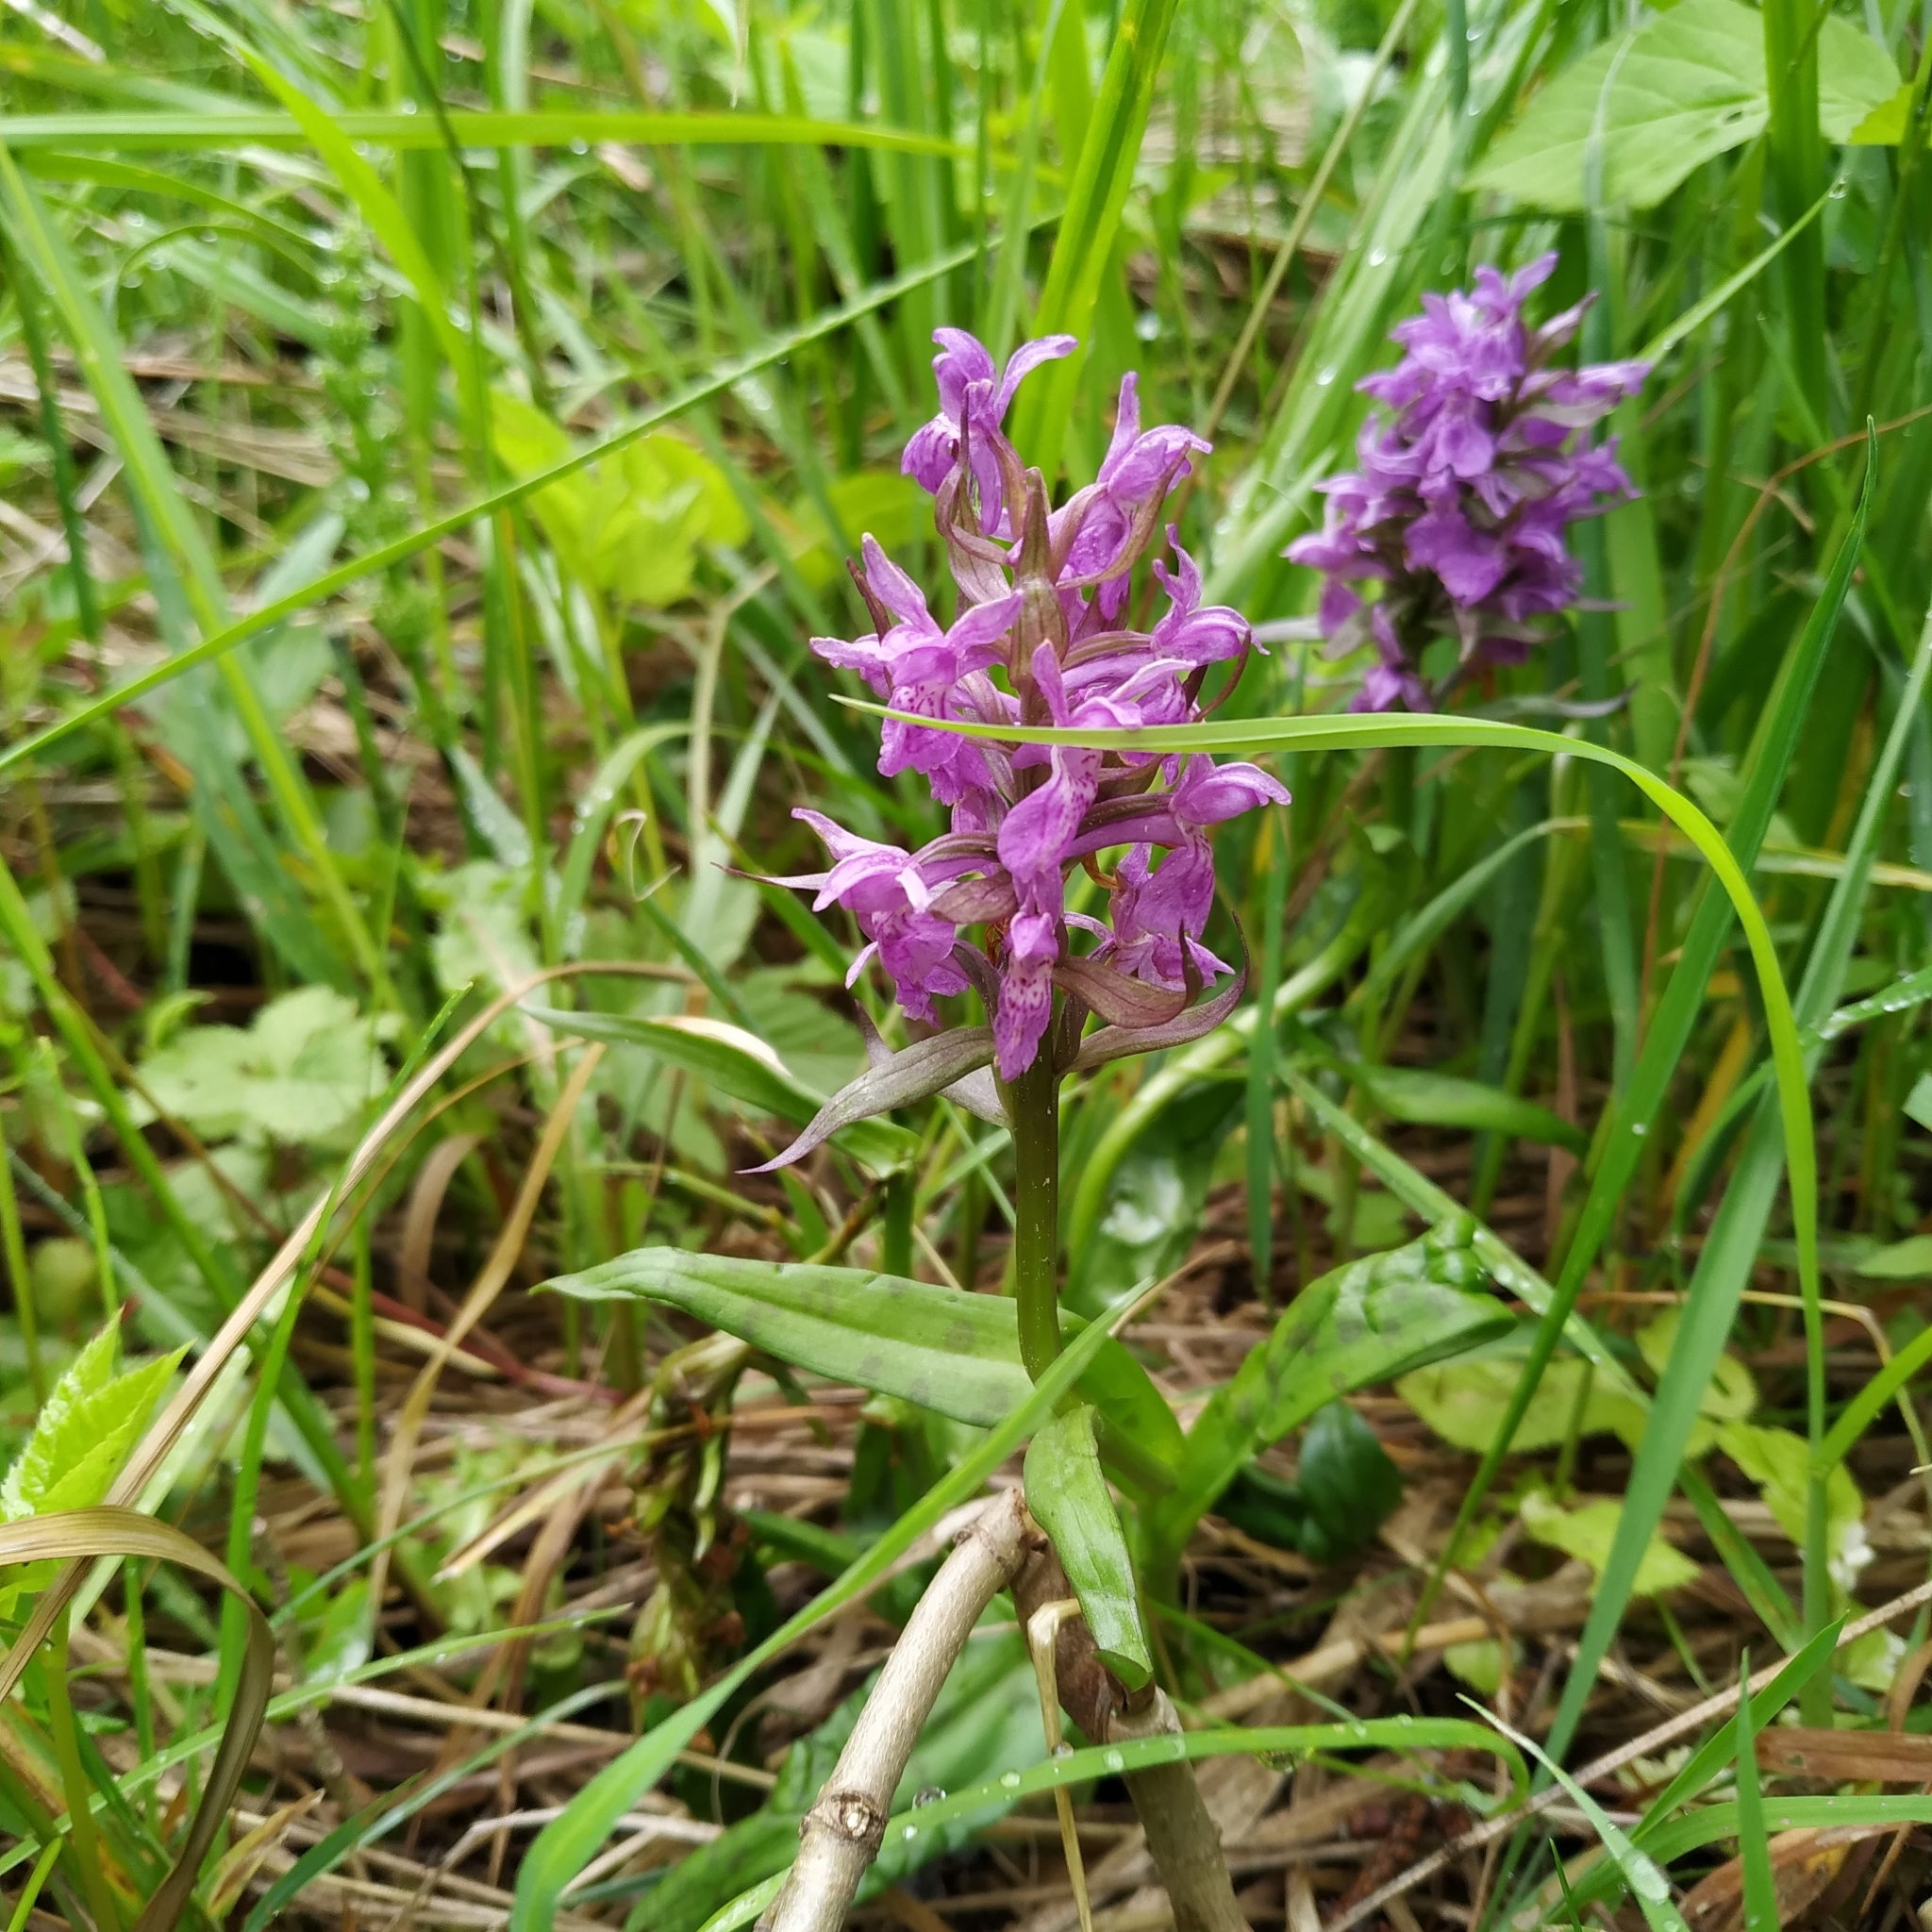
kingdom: Plantae
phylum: Tracheophyta
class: Liliopsida
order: Asparagales
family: Orchidaceae
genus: Dactylorhiza
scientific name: Dactylorhiza majalis
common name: Marsh orchid
